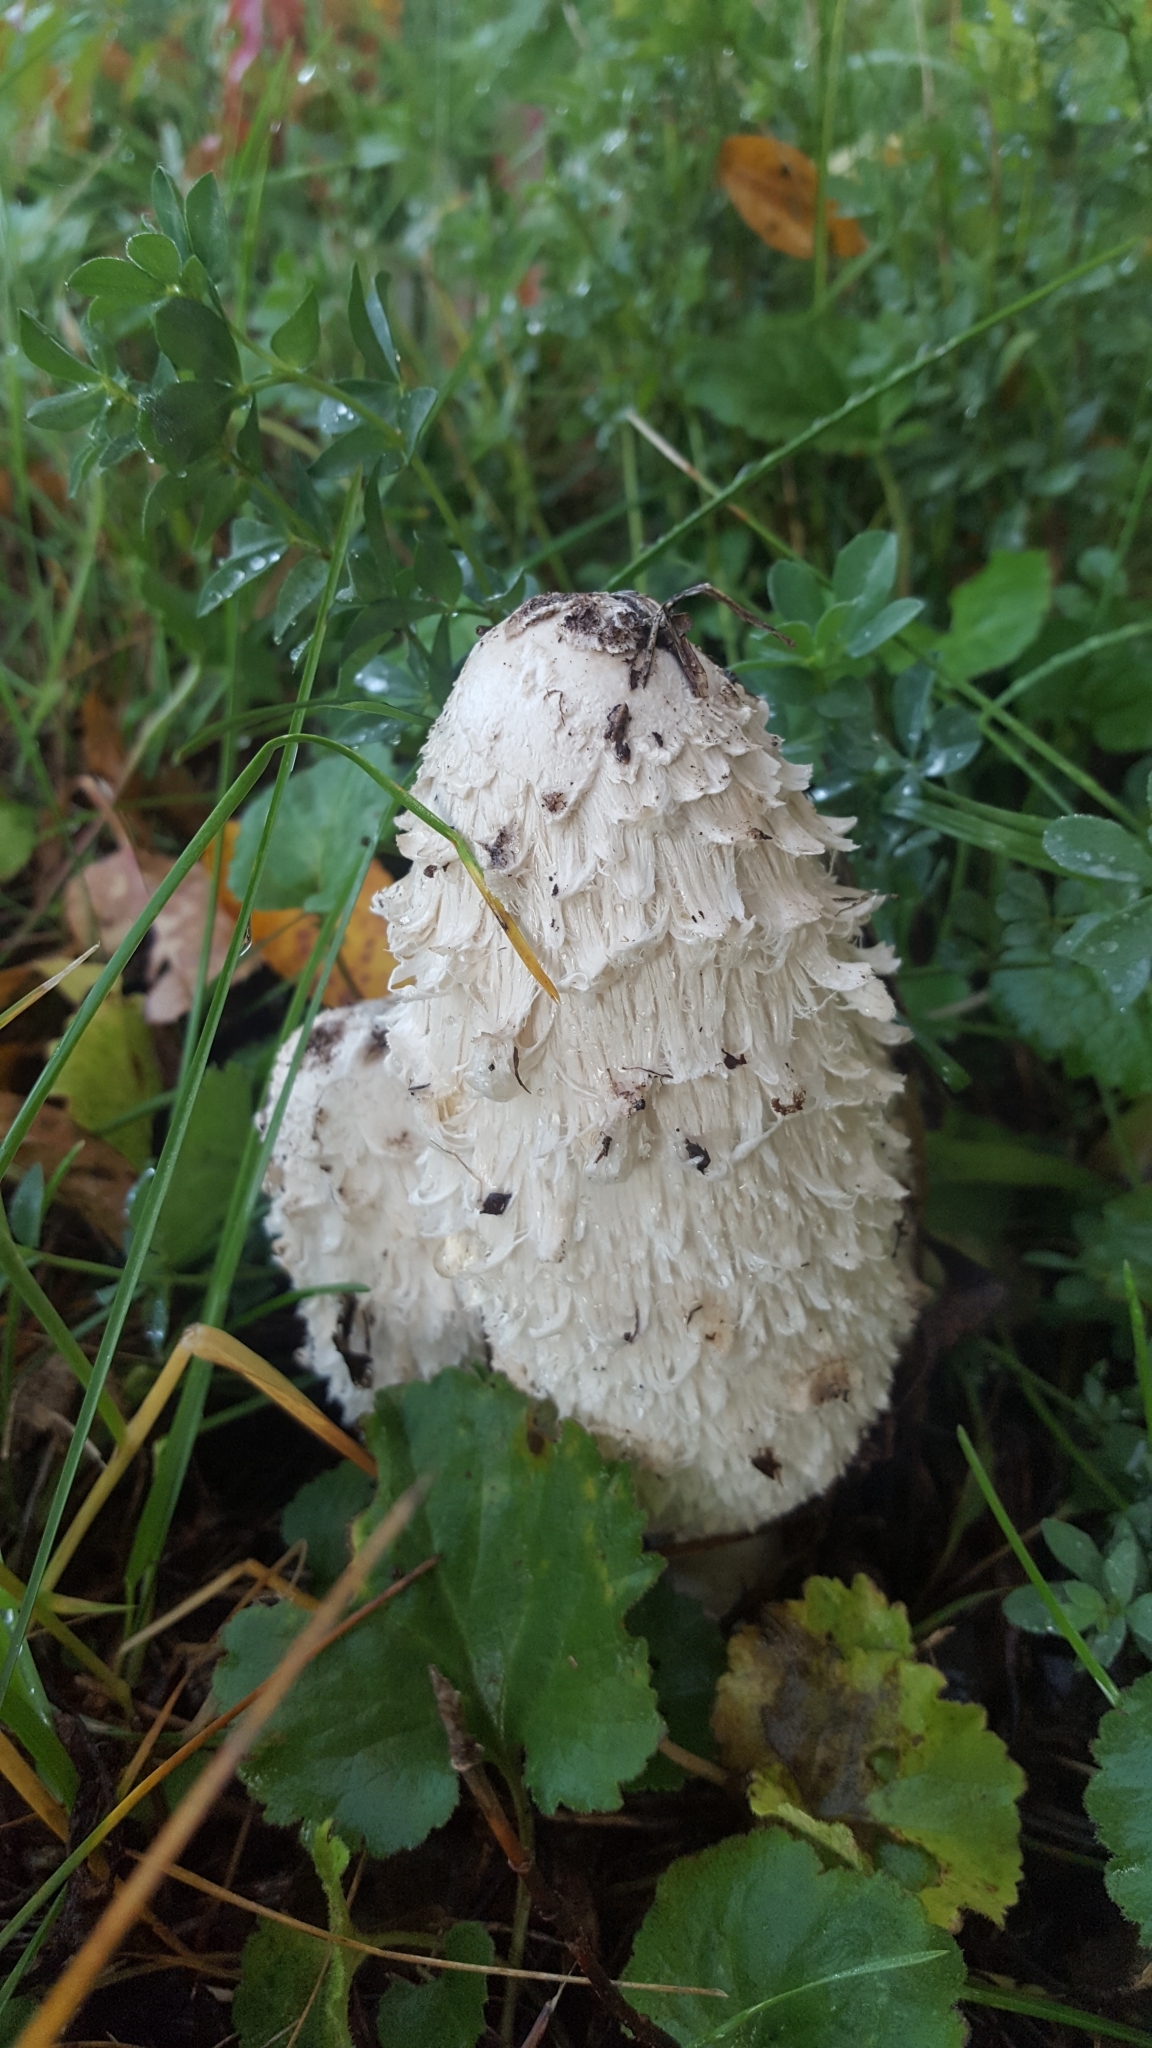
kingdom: Fungi
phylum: Basidiomycota
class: Agaricomycetes
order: Agaricales
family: Agaricaceae
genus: Coprinus
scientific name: Coprinus comatus
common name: Lawyer's wig
